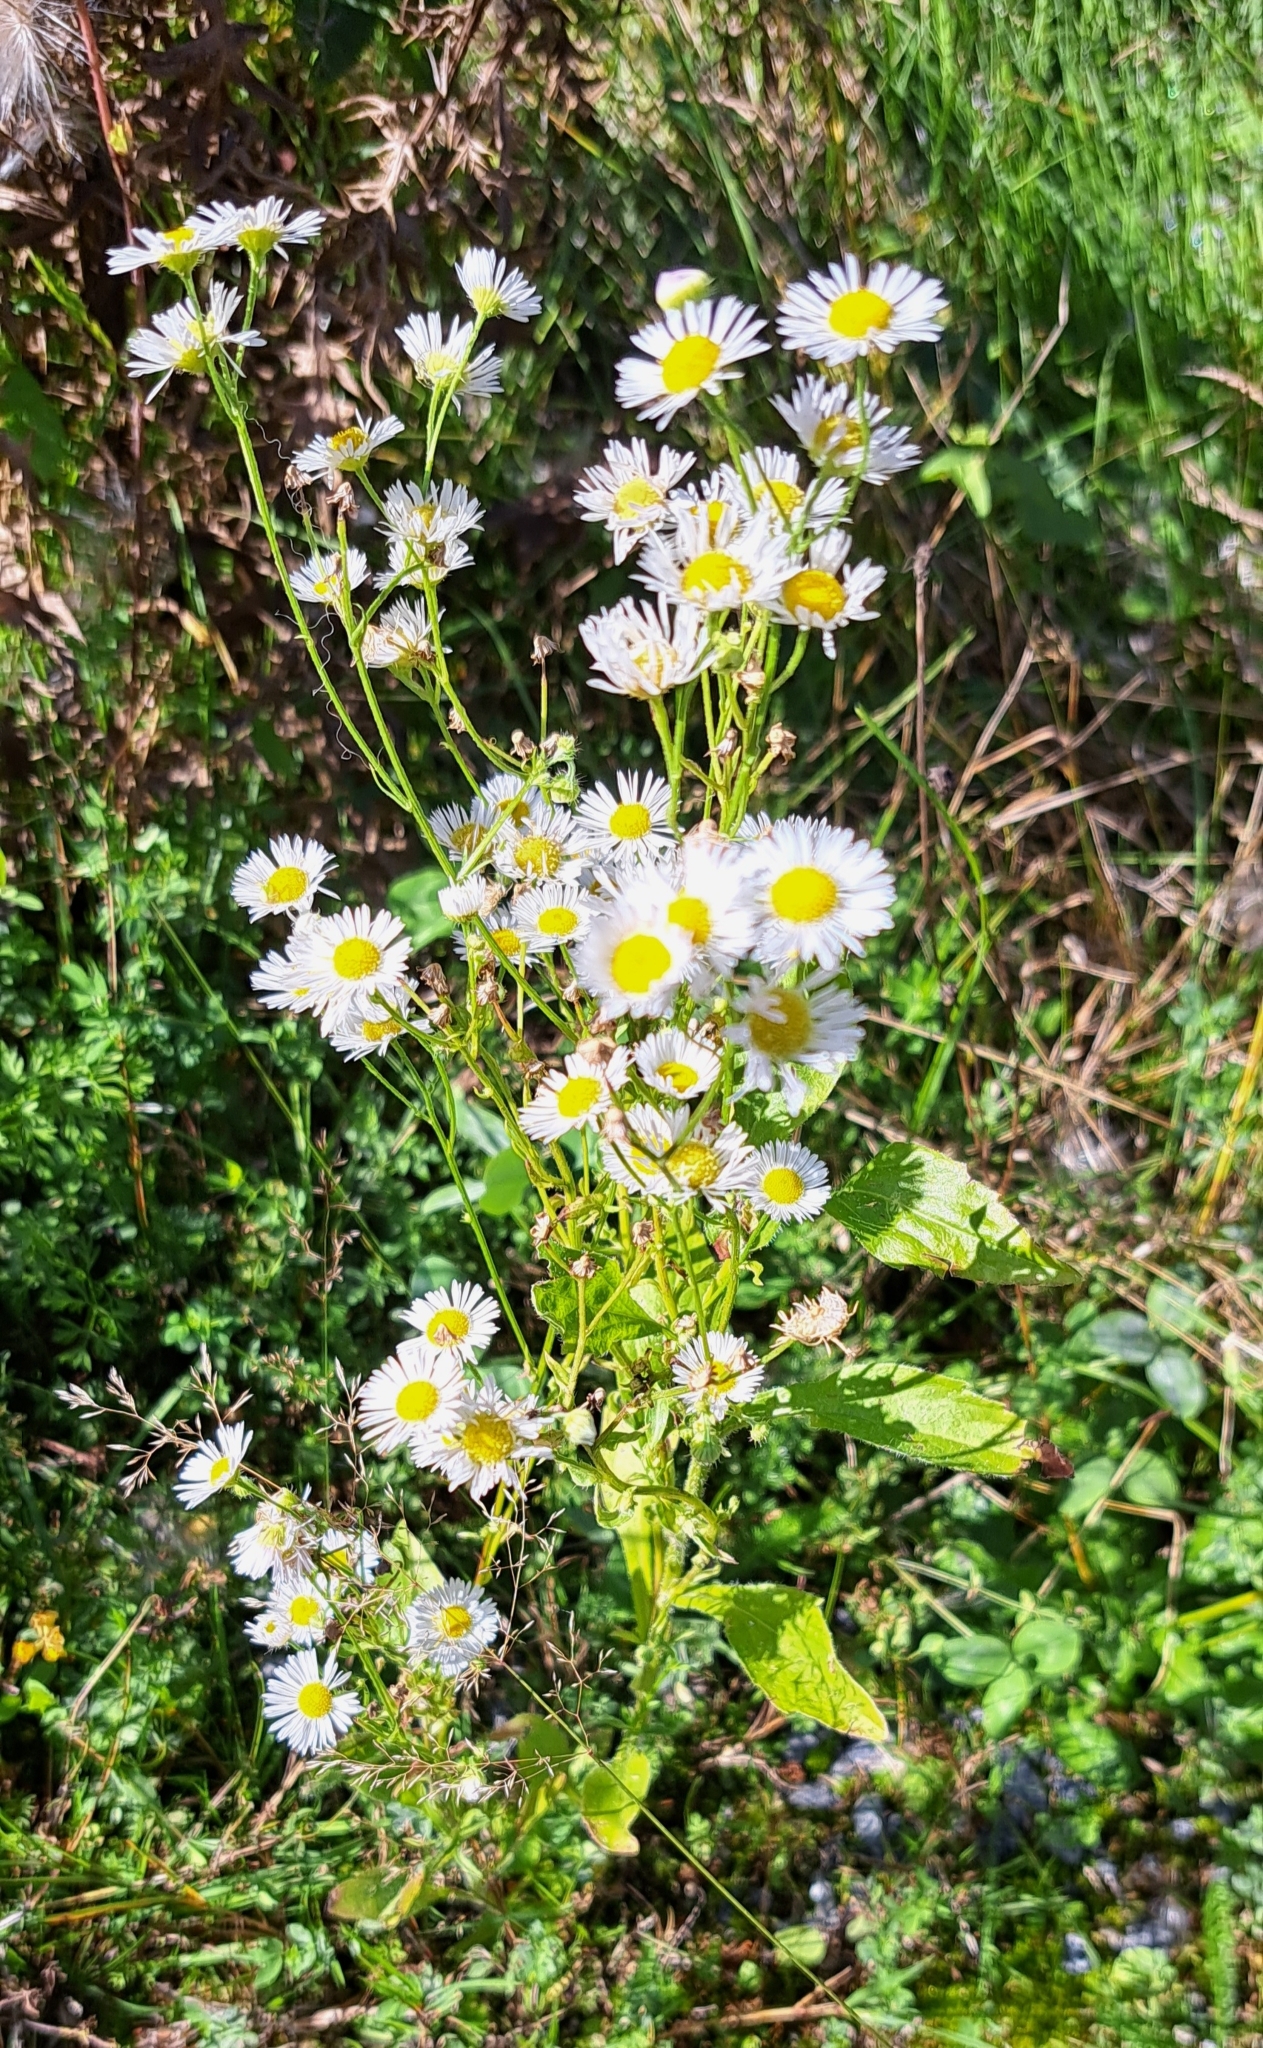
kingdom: Plantae
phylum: Tracheophyta
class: Magnoliopsida
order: Asterales
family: Asteraceae
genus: Erigeron
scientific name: Erigeron annuus
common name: Tall fleabane
